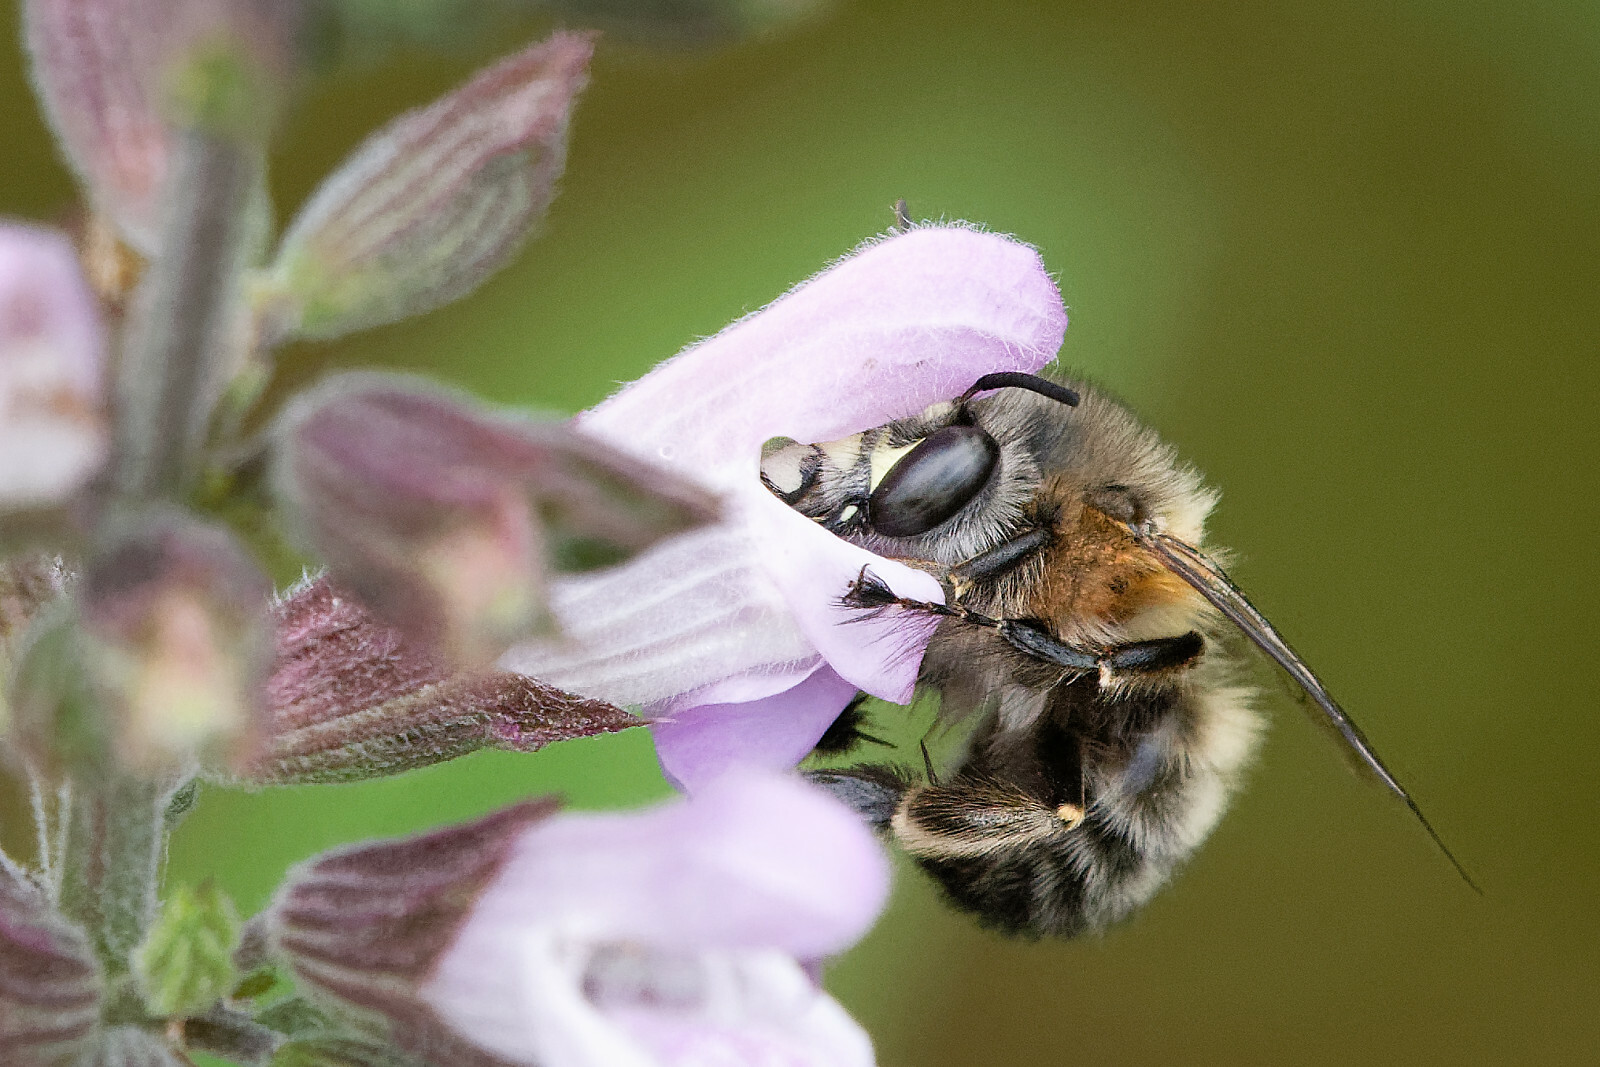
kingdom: Animalia
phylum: Arthropoda
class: Insecta
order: Hymenoptera
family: Apidae
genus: Anthophora
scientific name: Anthophora plumipes
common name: Hairy-footed flower bee
